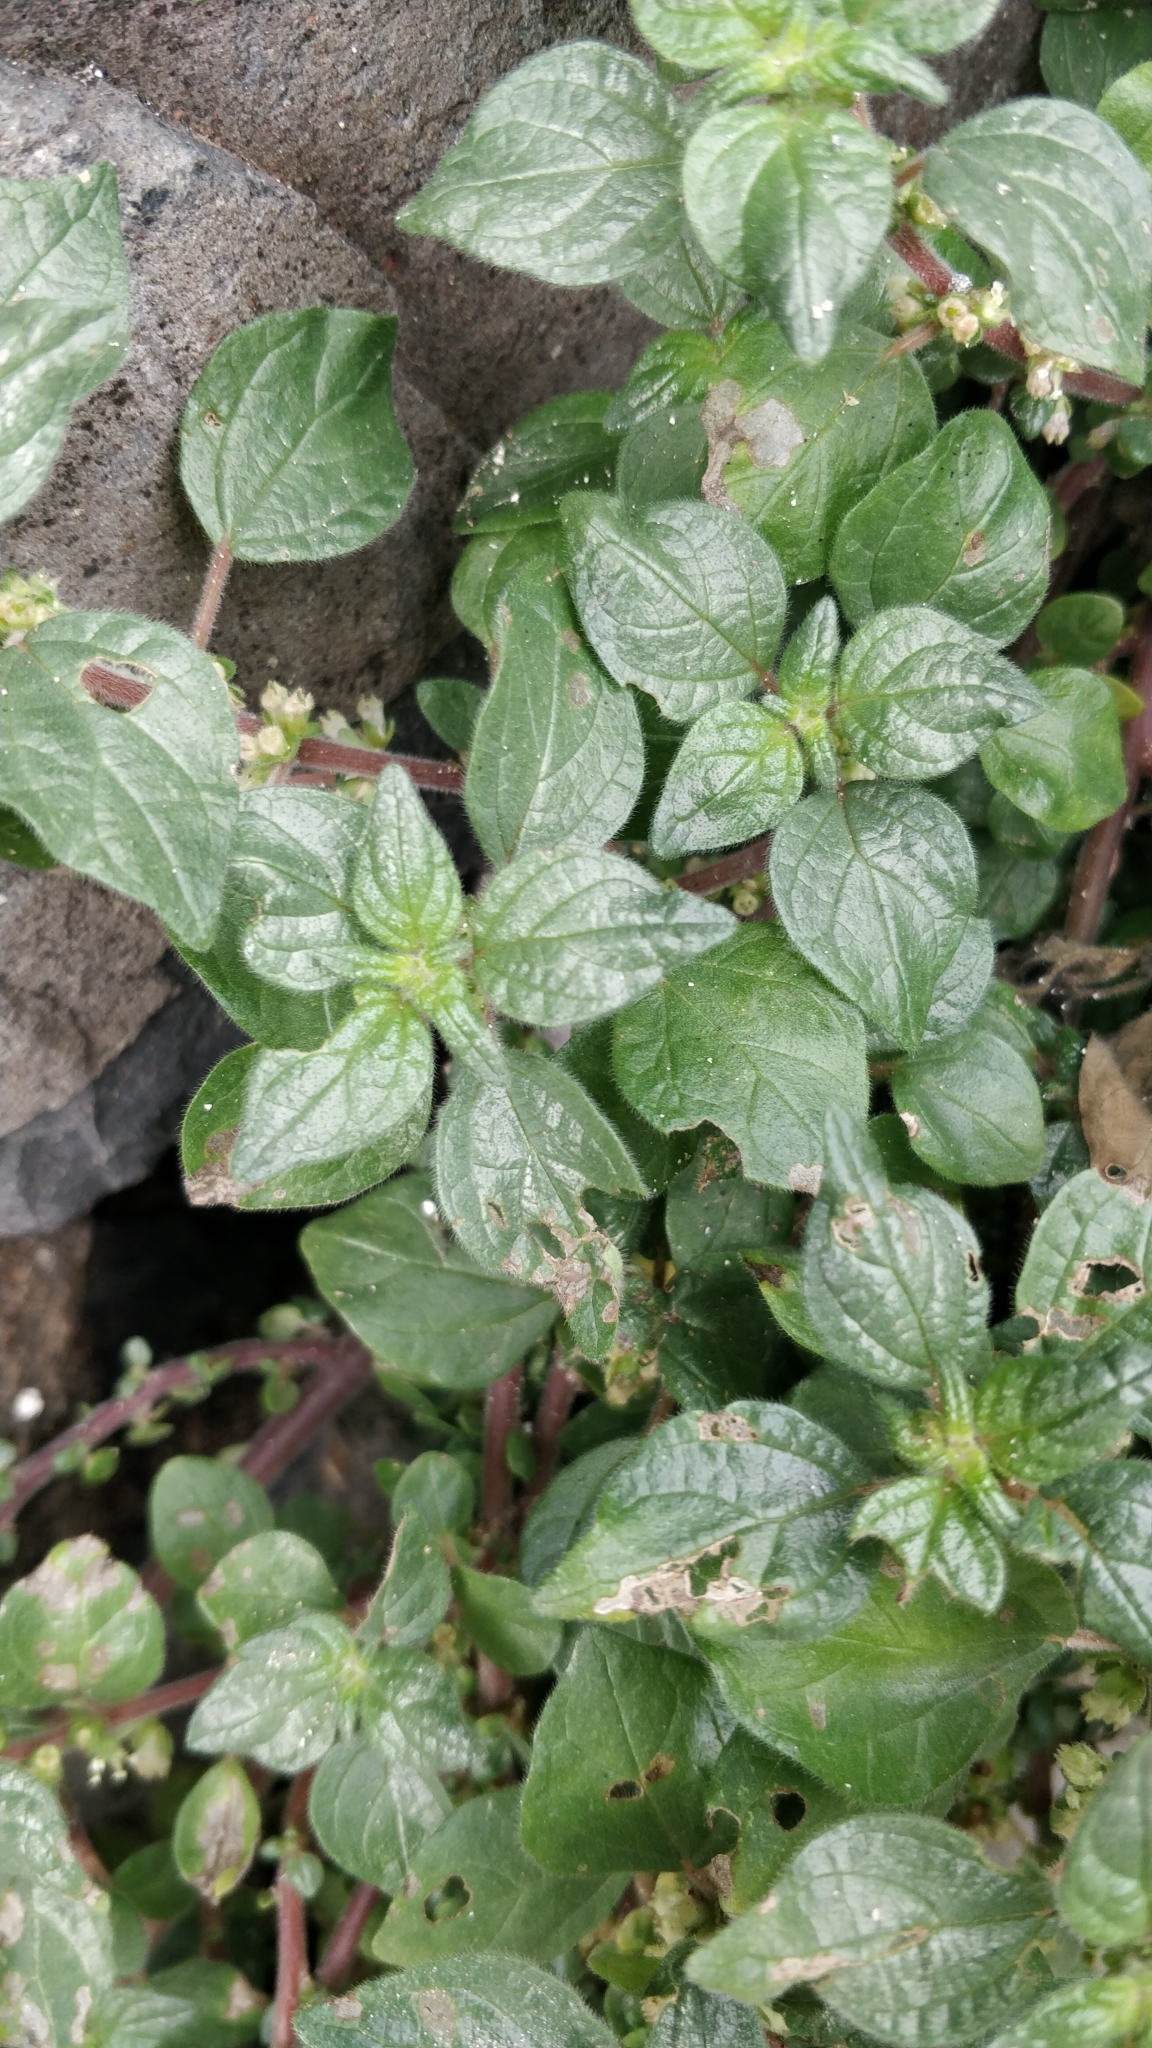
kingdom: Plantae
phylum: Tracheophyta
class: Magnoliopsida
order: Rosales
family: Urticaceae
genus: Parietaria
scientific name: Parietaria judaica
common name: Pellitory-of-the-wall
